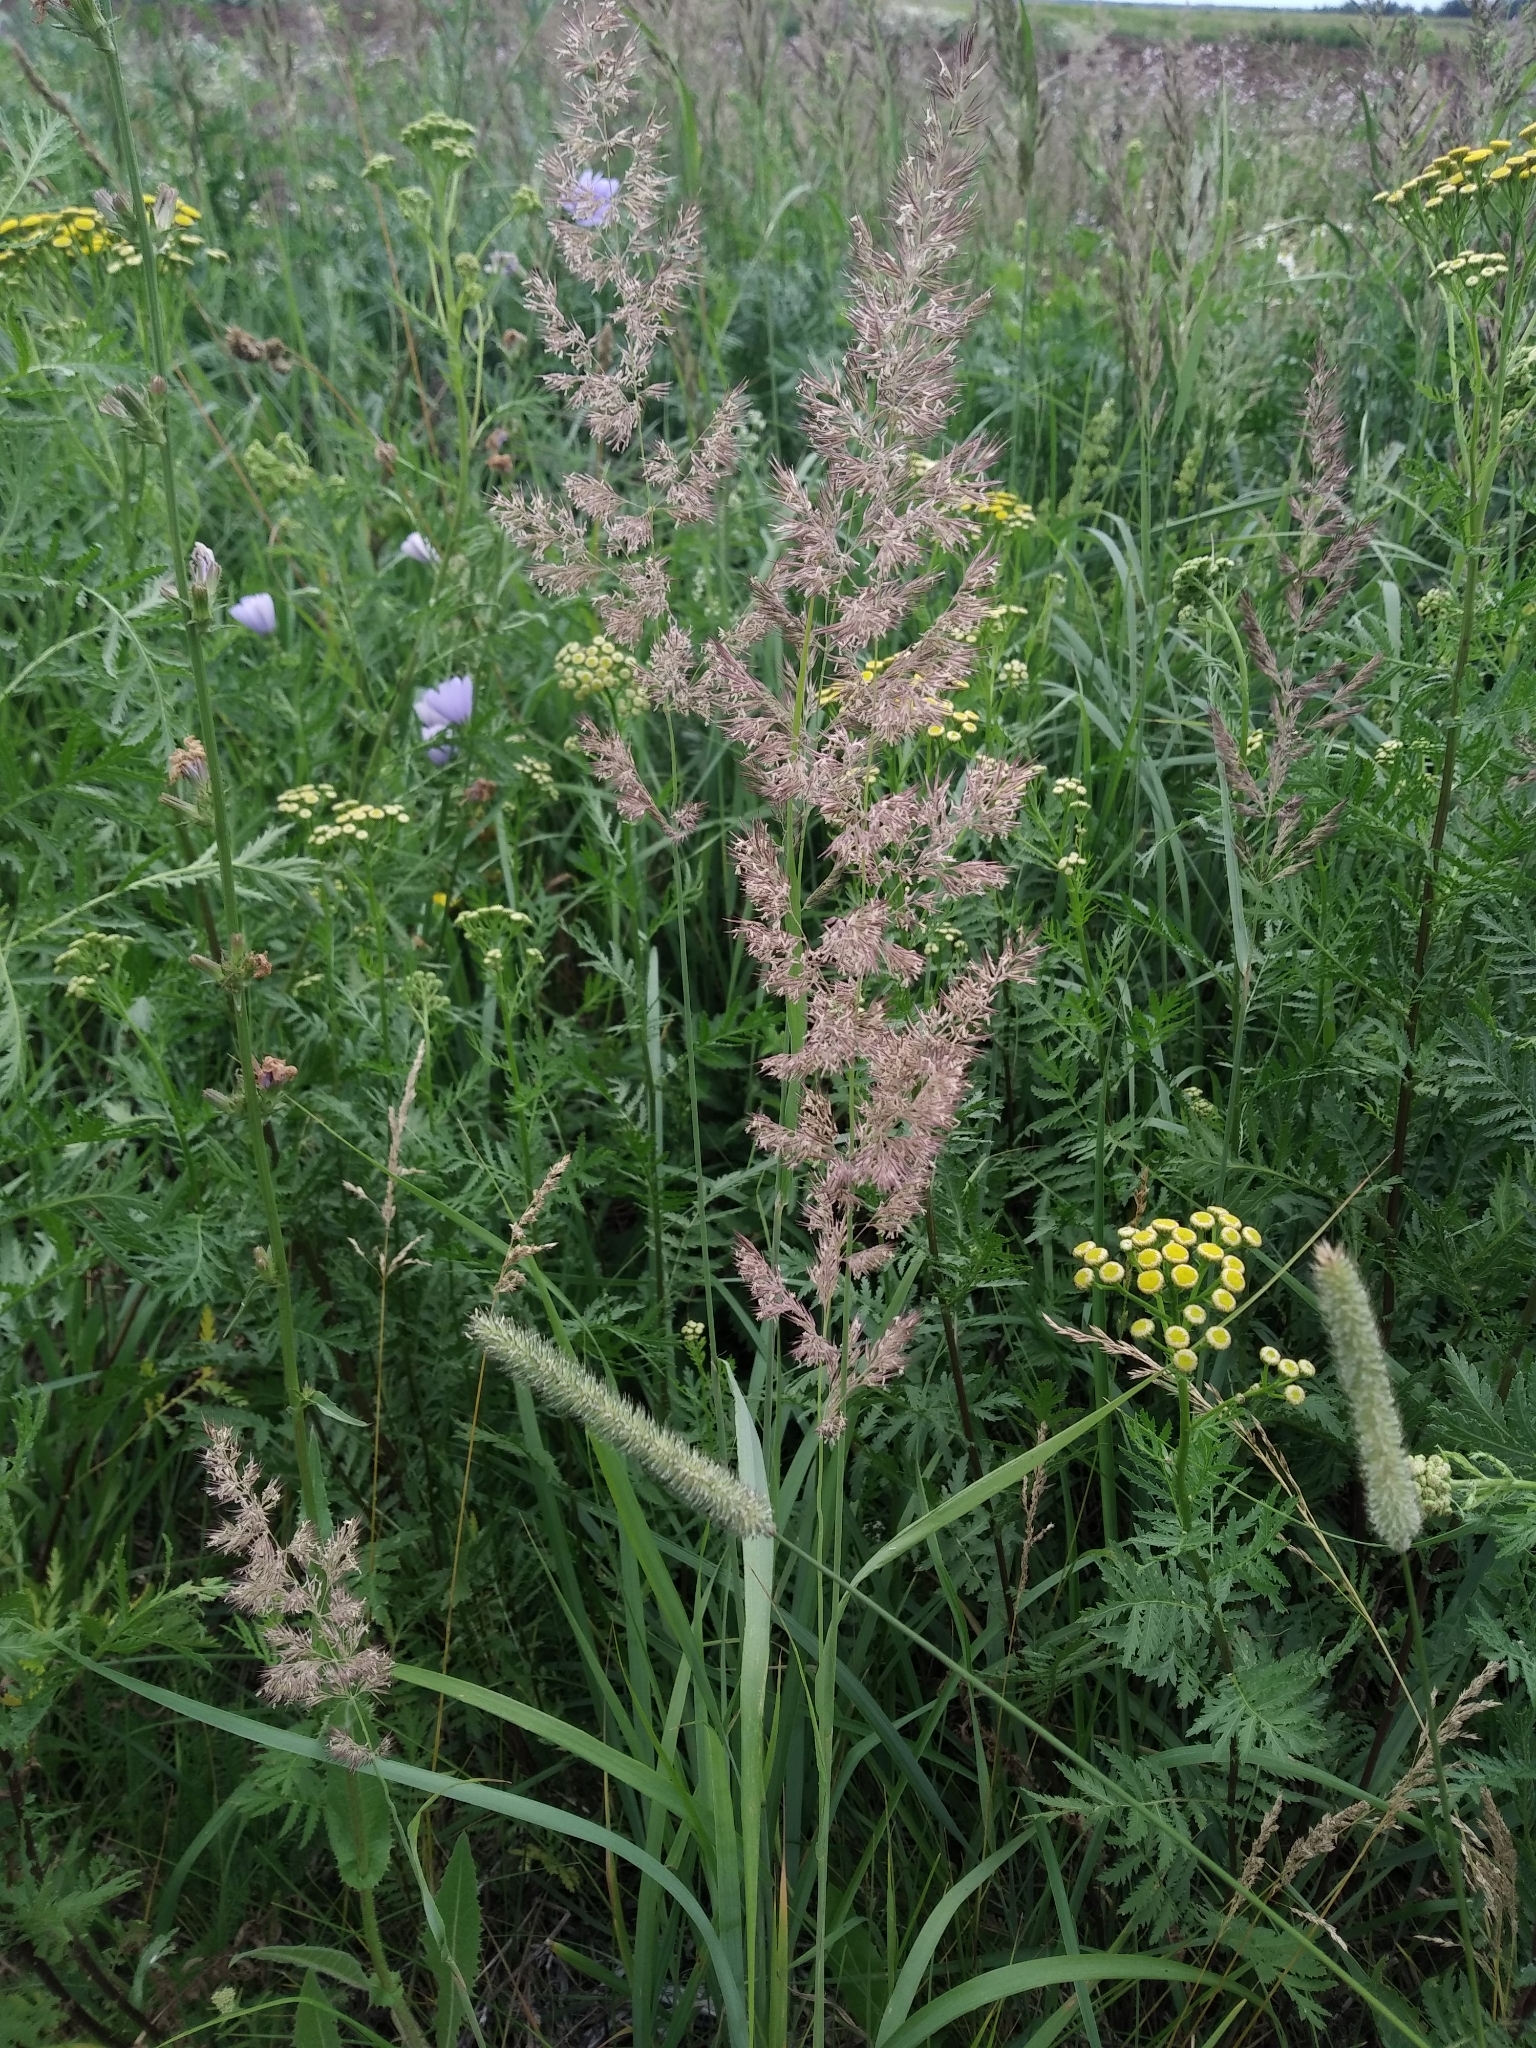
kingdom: Plantae
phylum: Tracheophyta
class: Liliopsida
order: Poales
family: Poaceae
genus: Calamagrostis
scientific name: Calamagrostis epigejos
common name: Wood small-reed
